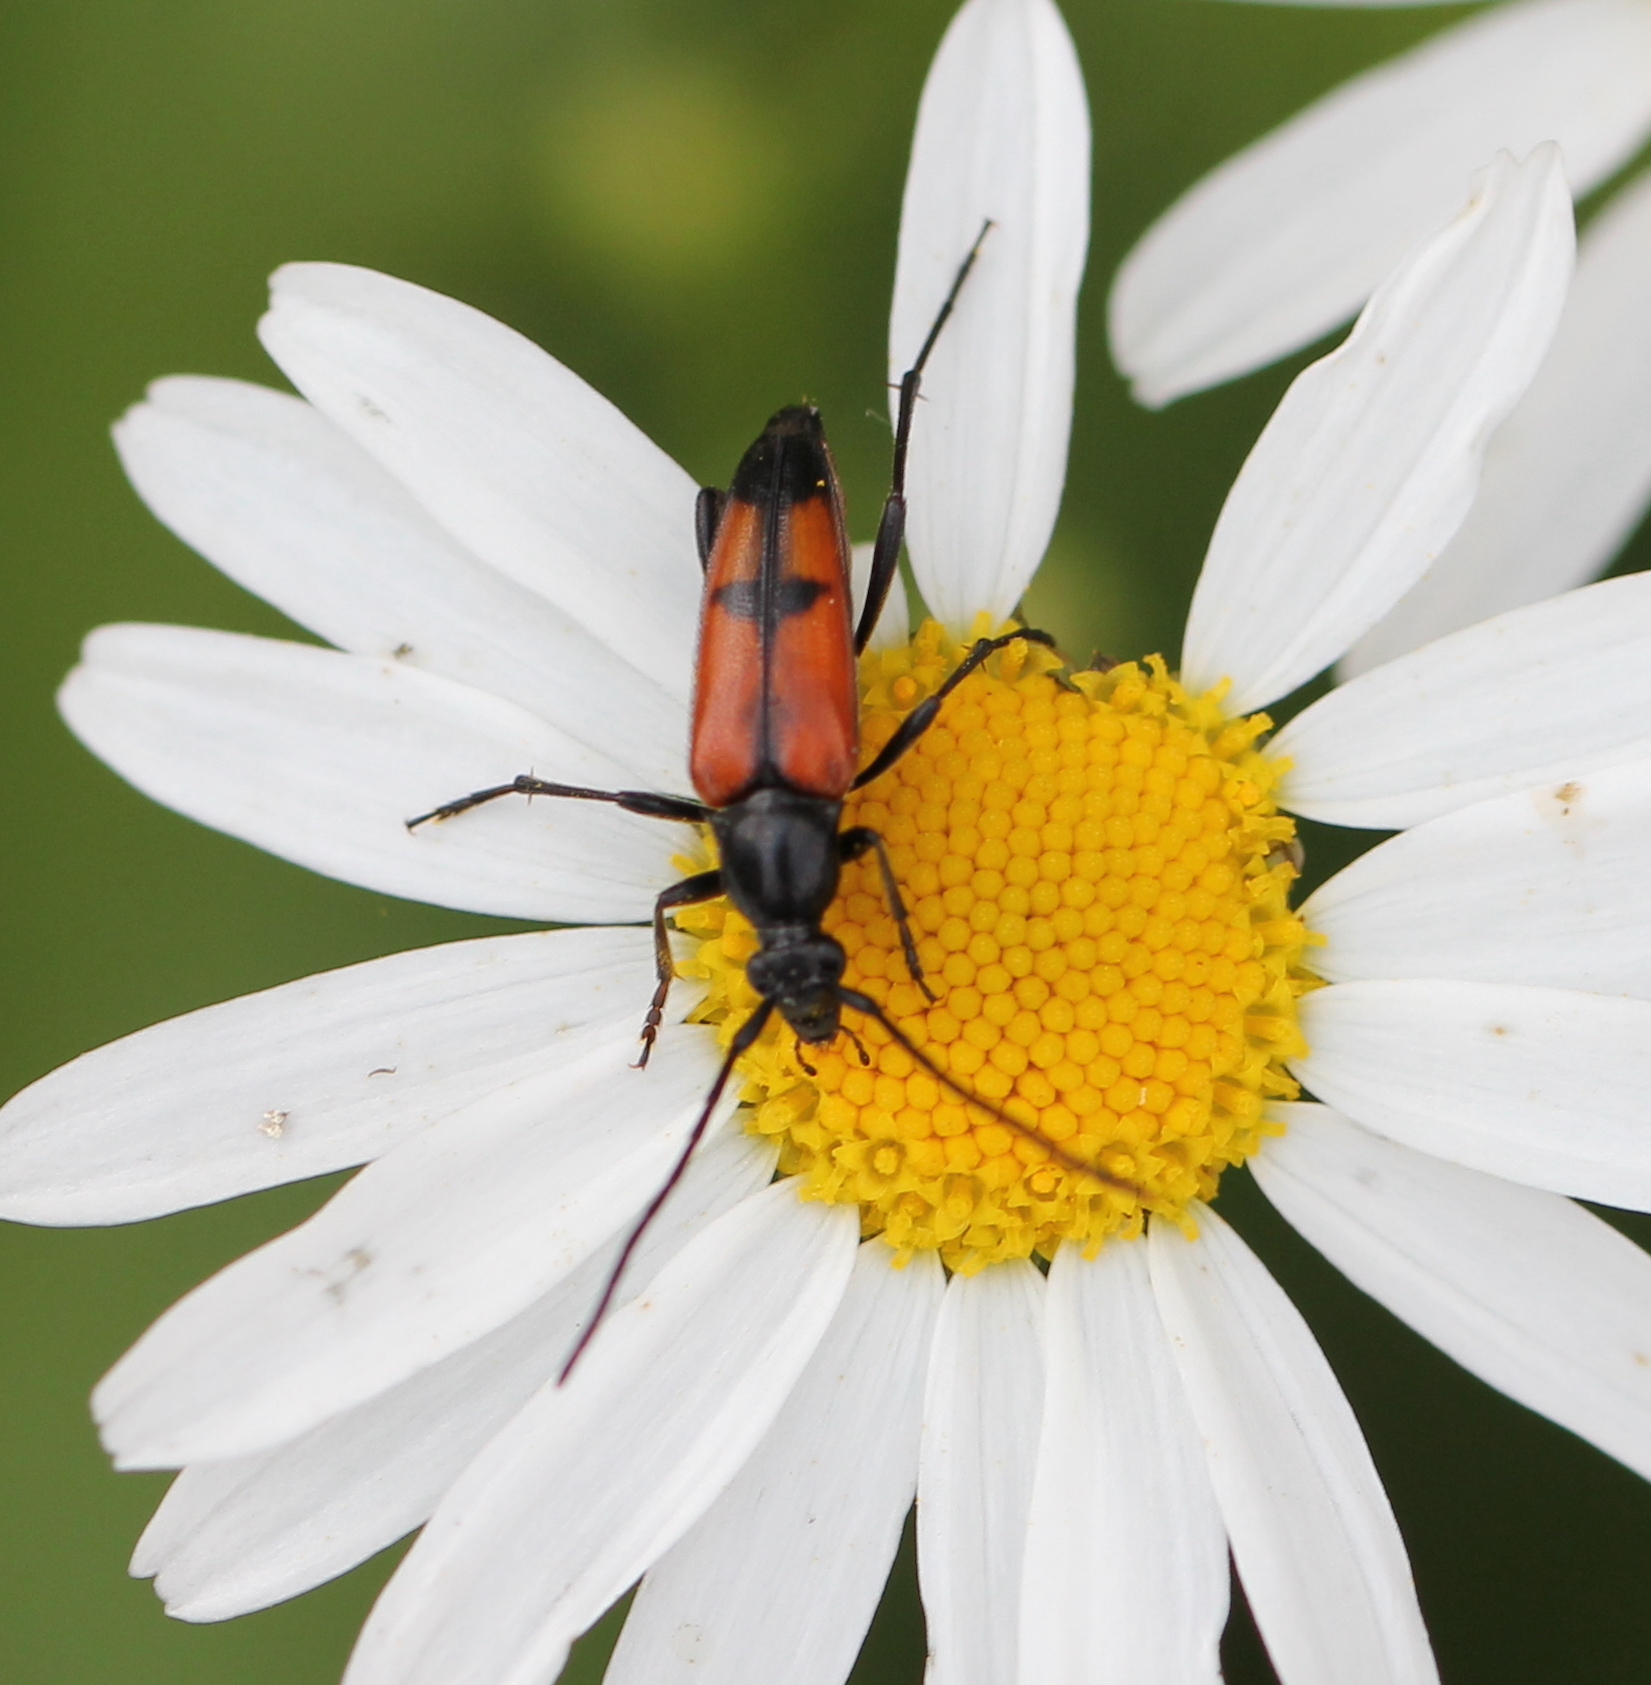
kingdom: Animalia
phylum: Arthropoda
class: Insecta
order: Coleoptera
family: Cerambycidae
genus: Stenurella
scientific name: Stenurella bifasciata
